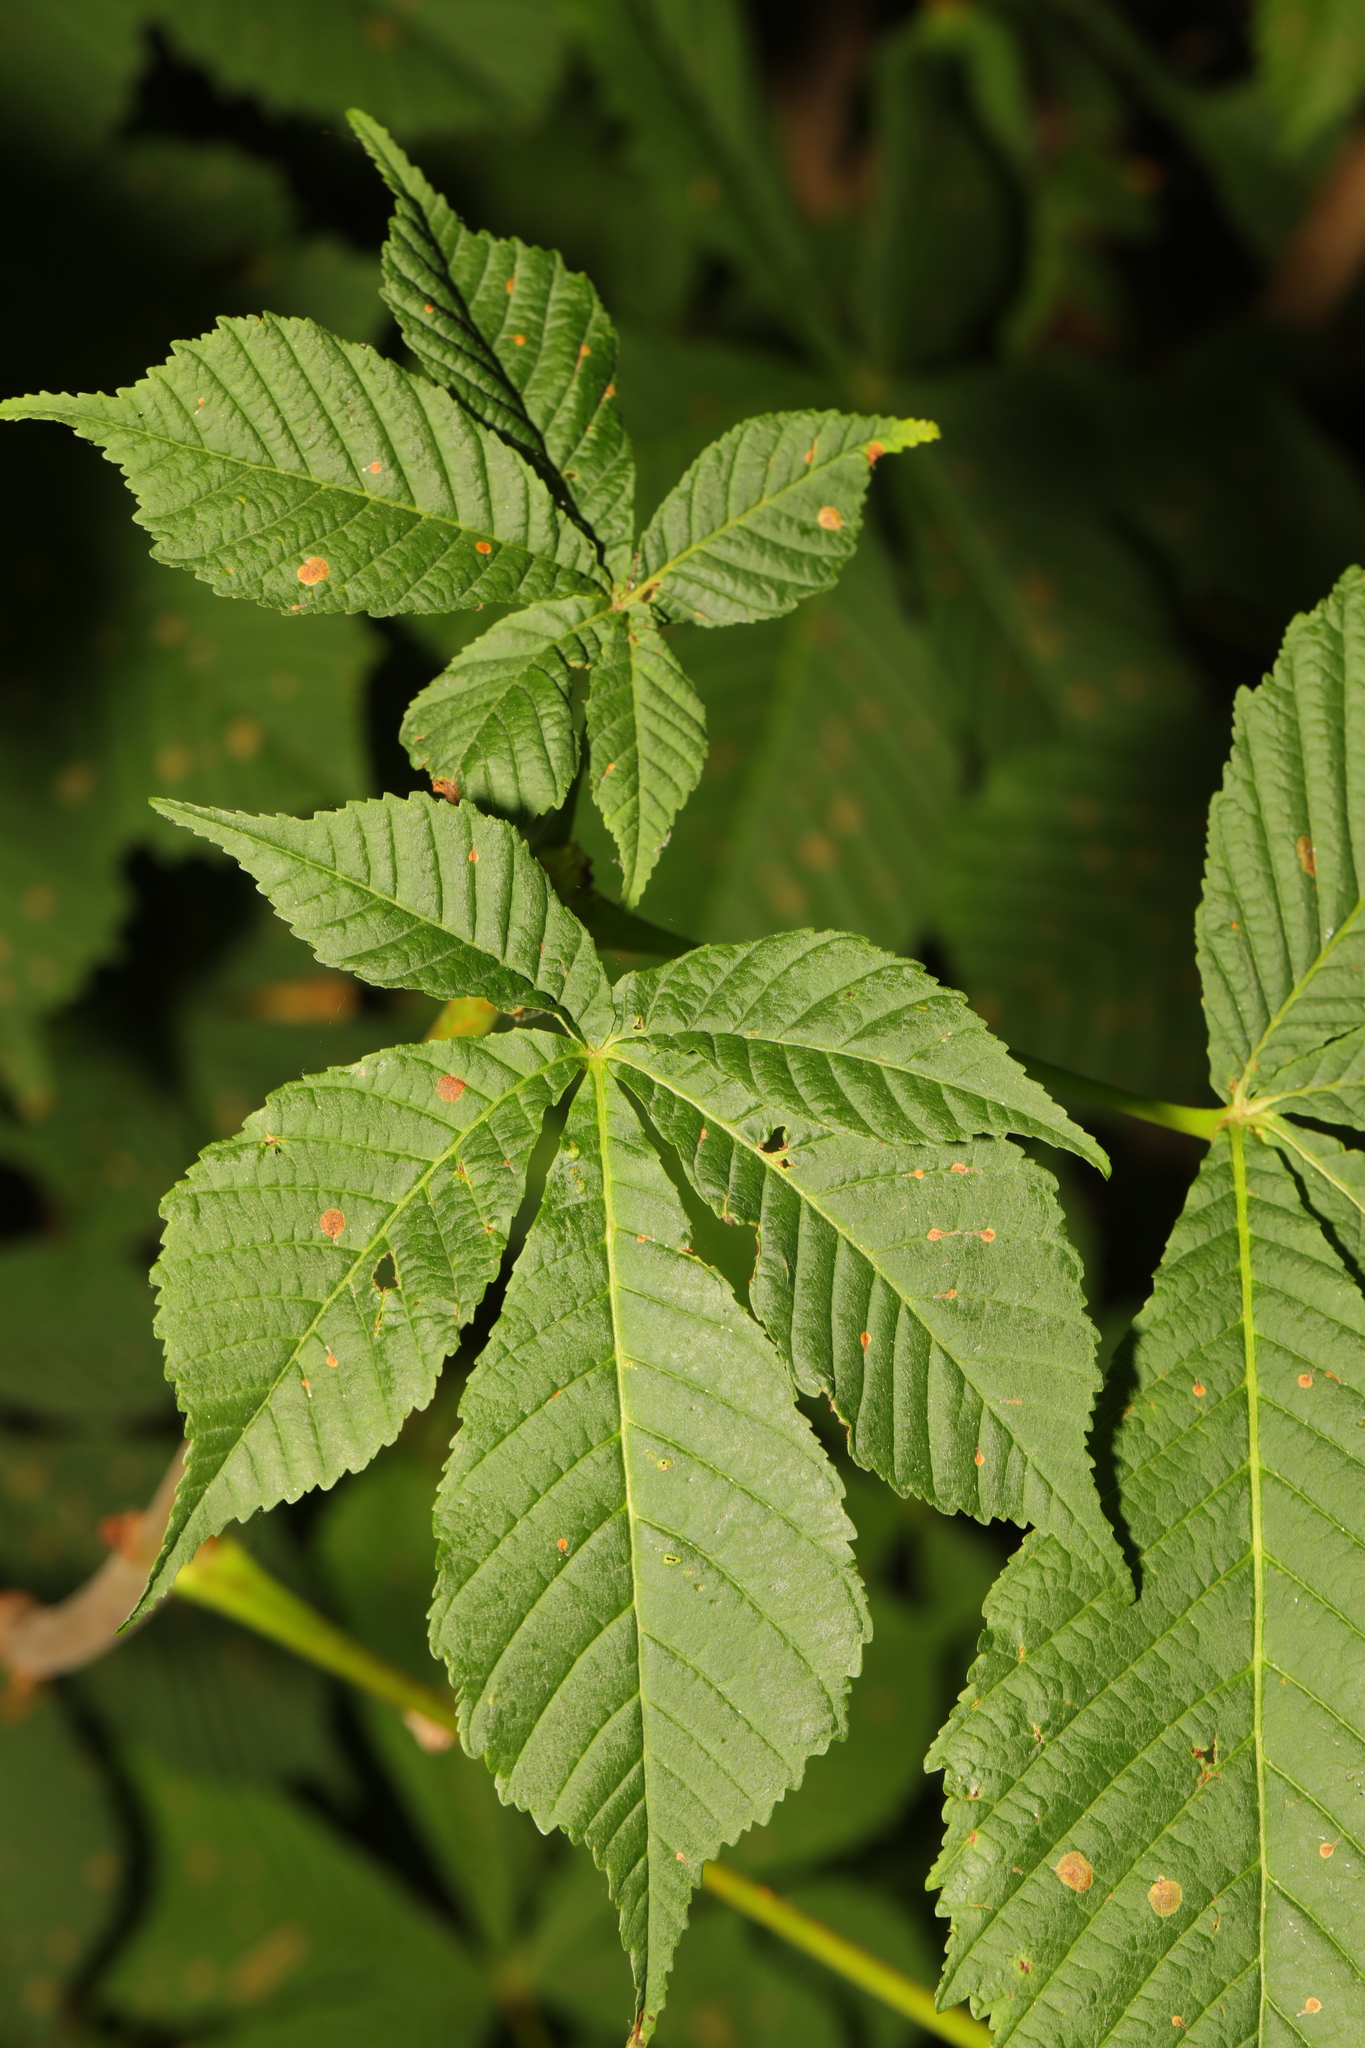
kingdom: Plantae
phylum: Tracheophyta
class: Magnoliopsida
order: Sapindales
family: Sapindaceae
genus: Aesculus
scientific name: Aesculus hippocastanum
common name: Horse-chestnut
